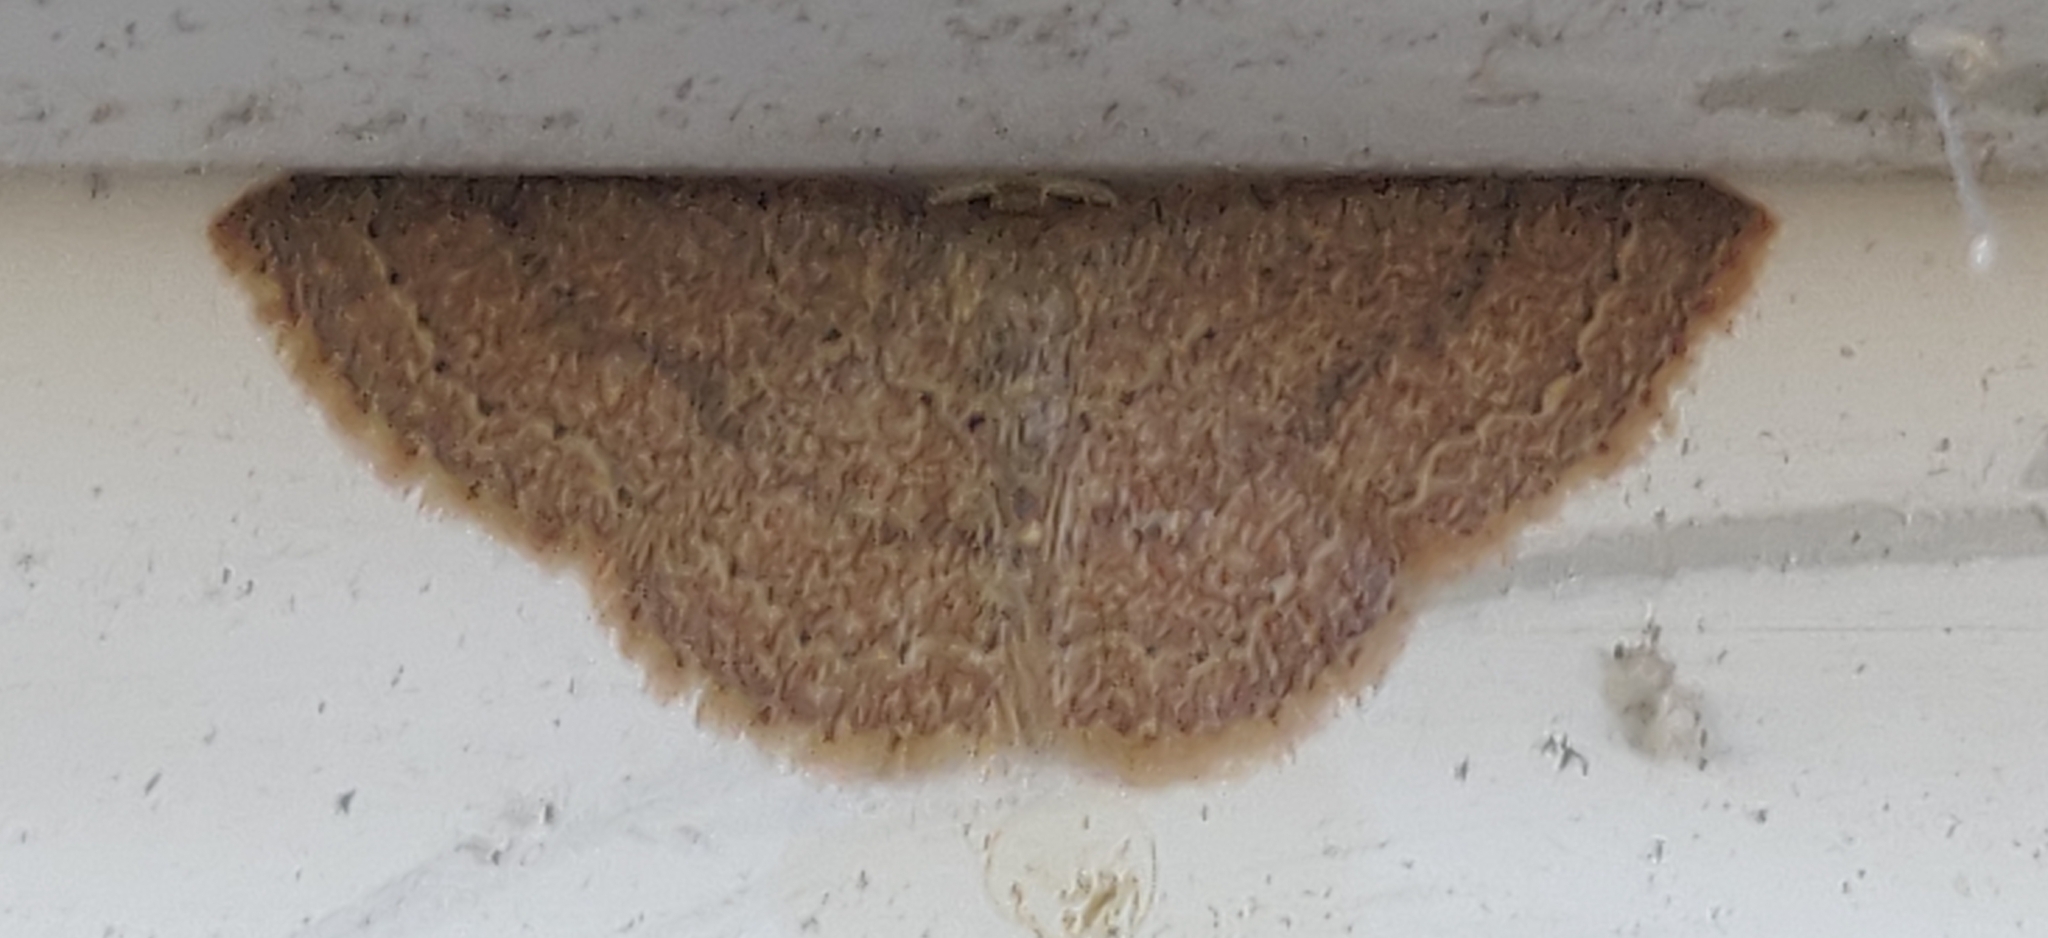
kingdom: Animalia
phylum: Arthropoda
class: Insecta
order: Lepidoptera
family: Geometridae
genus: Pleuroprucha
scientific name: Pleuroprucha insulsaria
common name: Common tan wave
